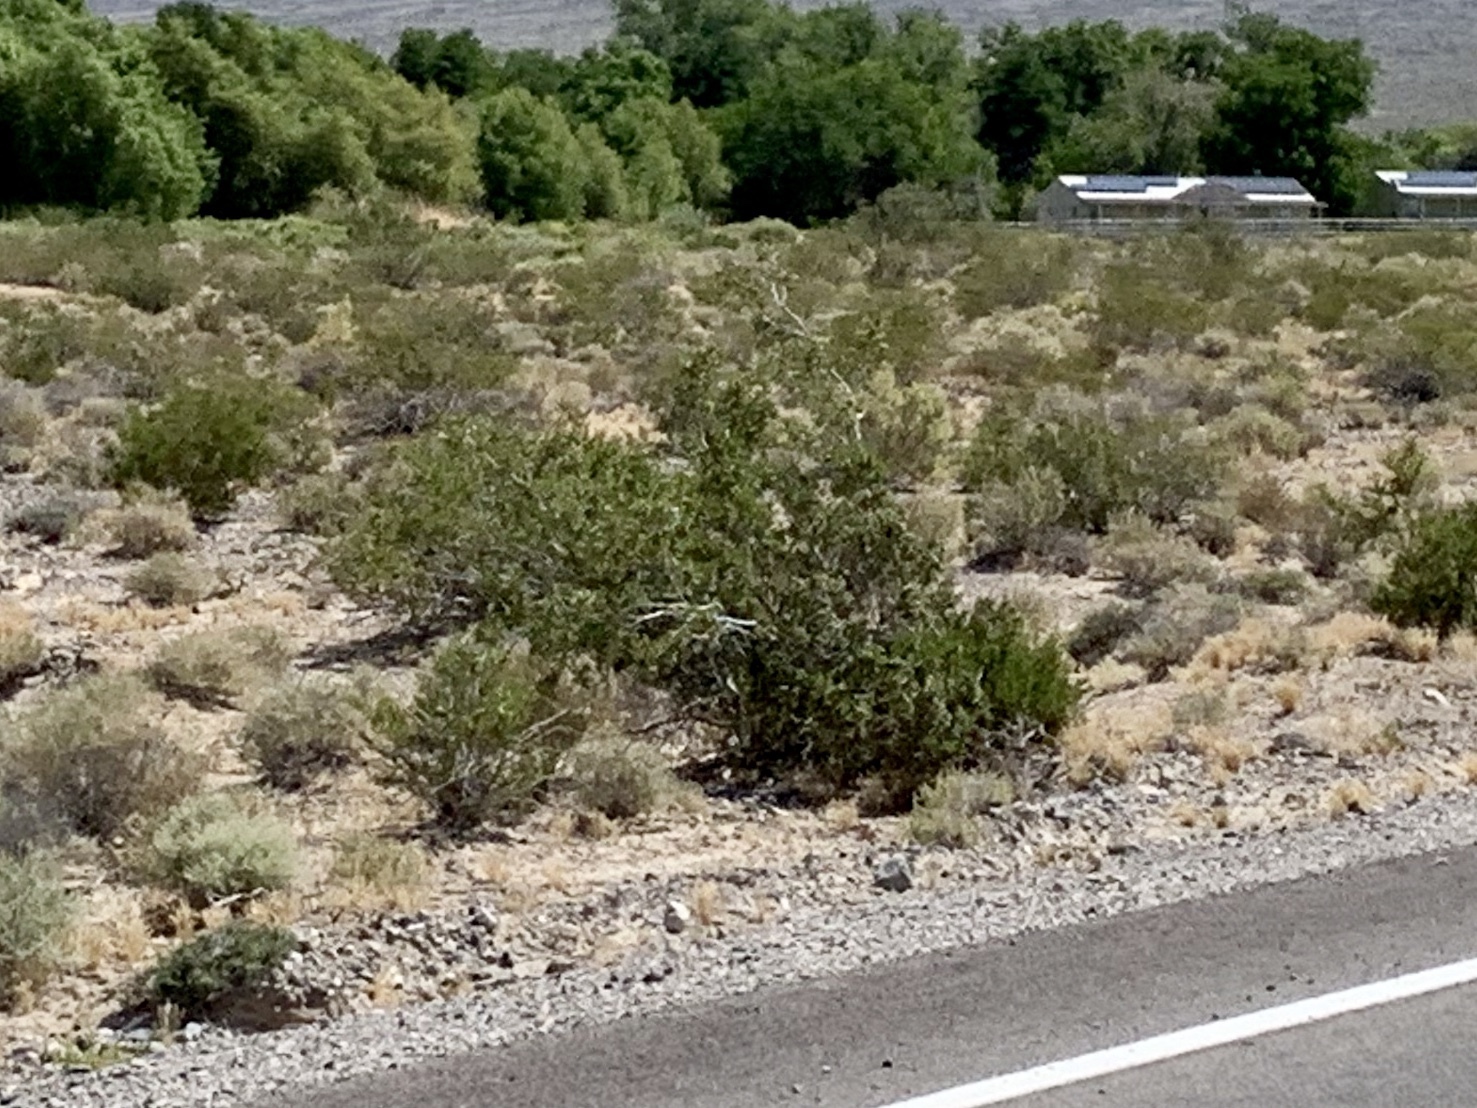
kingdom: Plantae
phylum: Tracheophyta
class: Magnoliopsida
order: Zygophyllales
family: Zygophyllaceae
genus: Larrea
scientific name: Larrea tridentata
